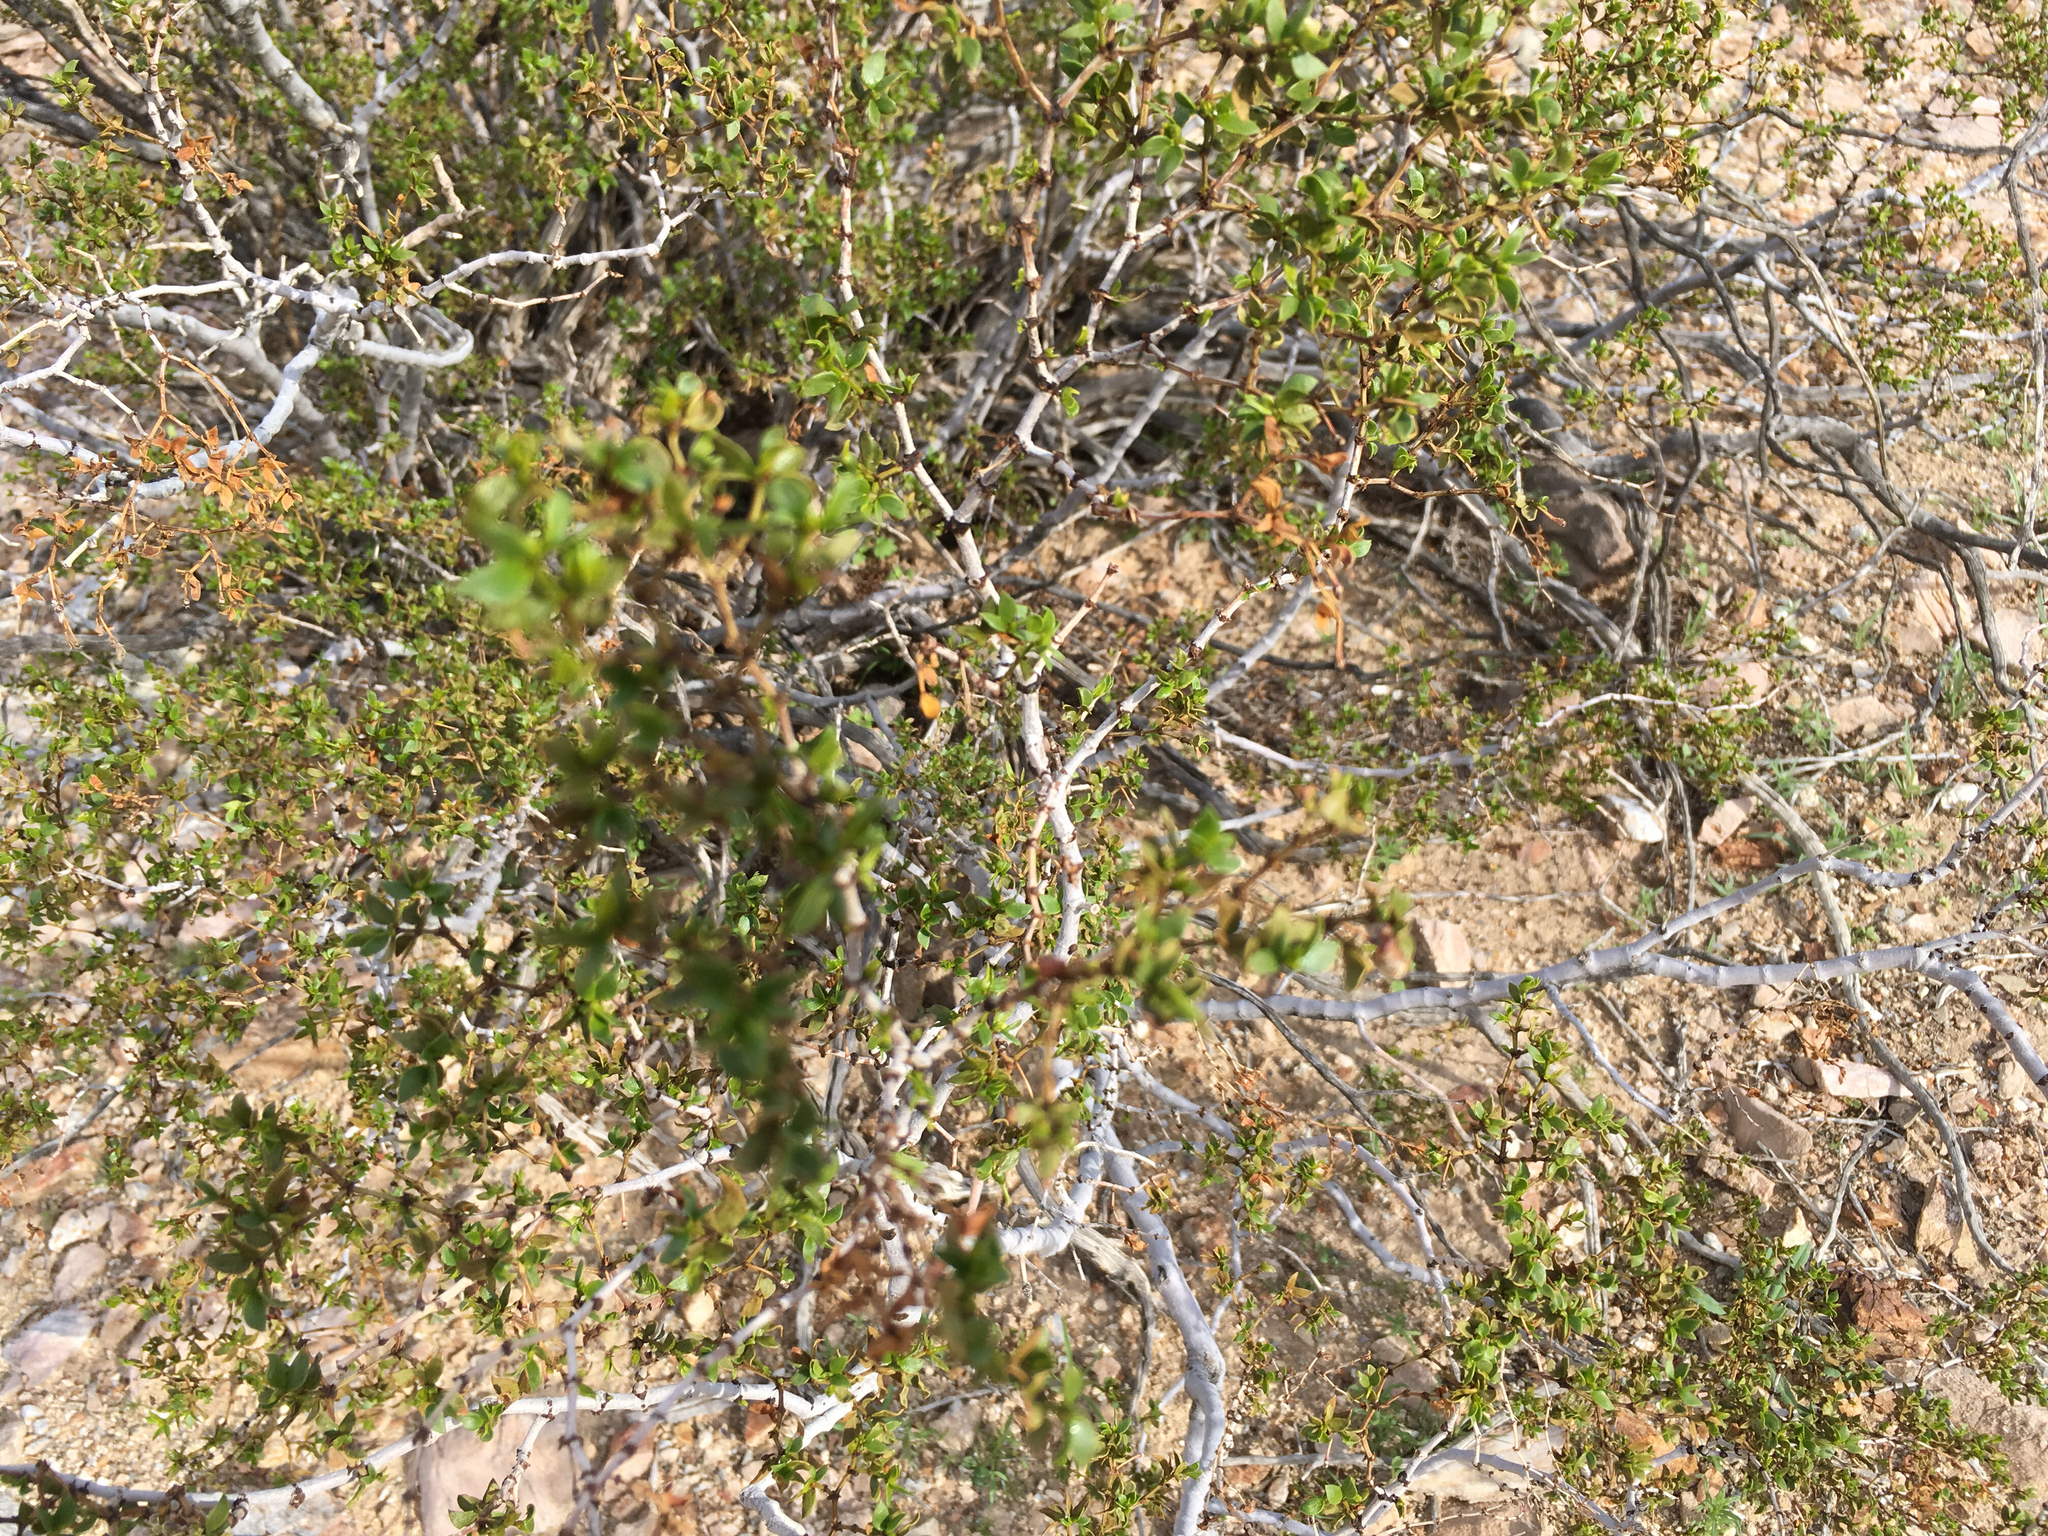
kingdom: Plantae
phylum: Tracheophyta
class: Magnoliopsida
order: Zygophyllales
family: Zygophyllaceae
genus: Larrea
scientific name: Larrea tridentata
